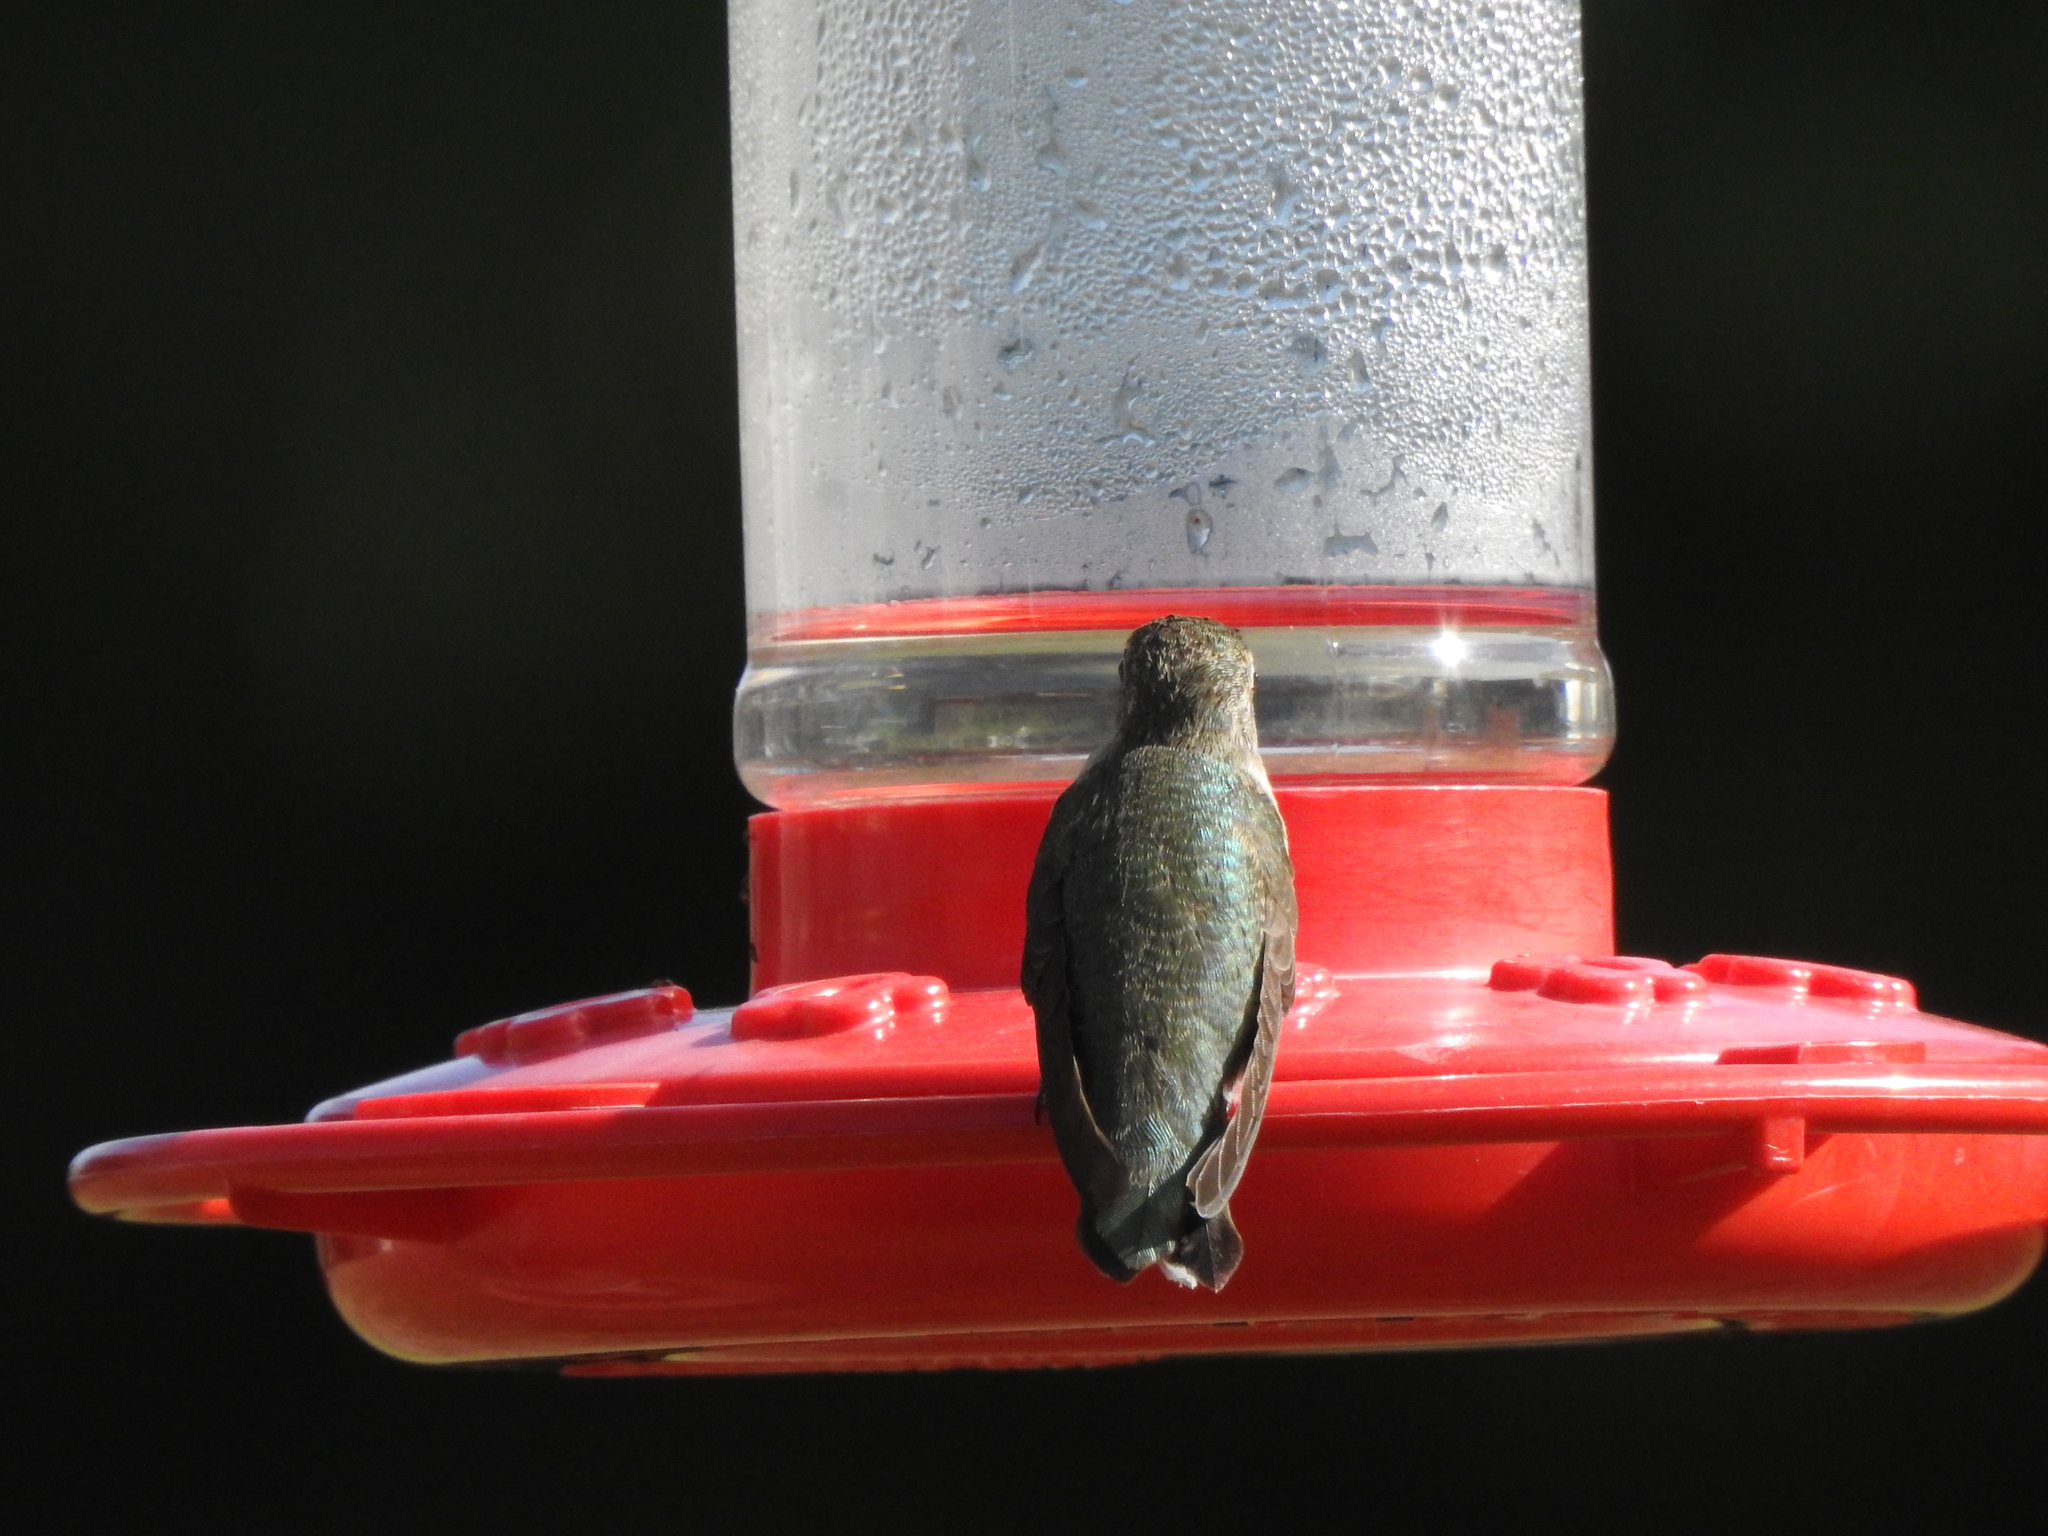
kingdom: Animalia
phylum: Chordata
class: Aves
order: Apodiformes
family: Trochilidae
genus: Archilochus
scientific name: Archilochus alexandri
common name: Black-chinned hummingbird
